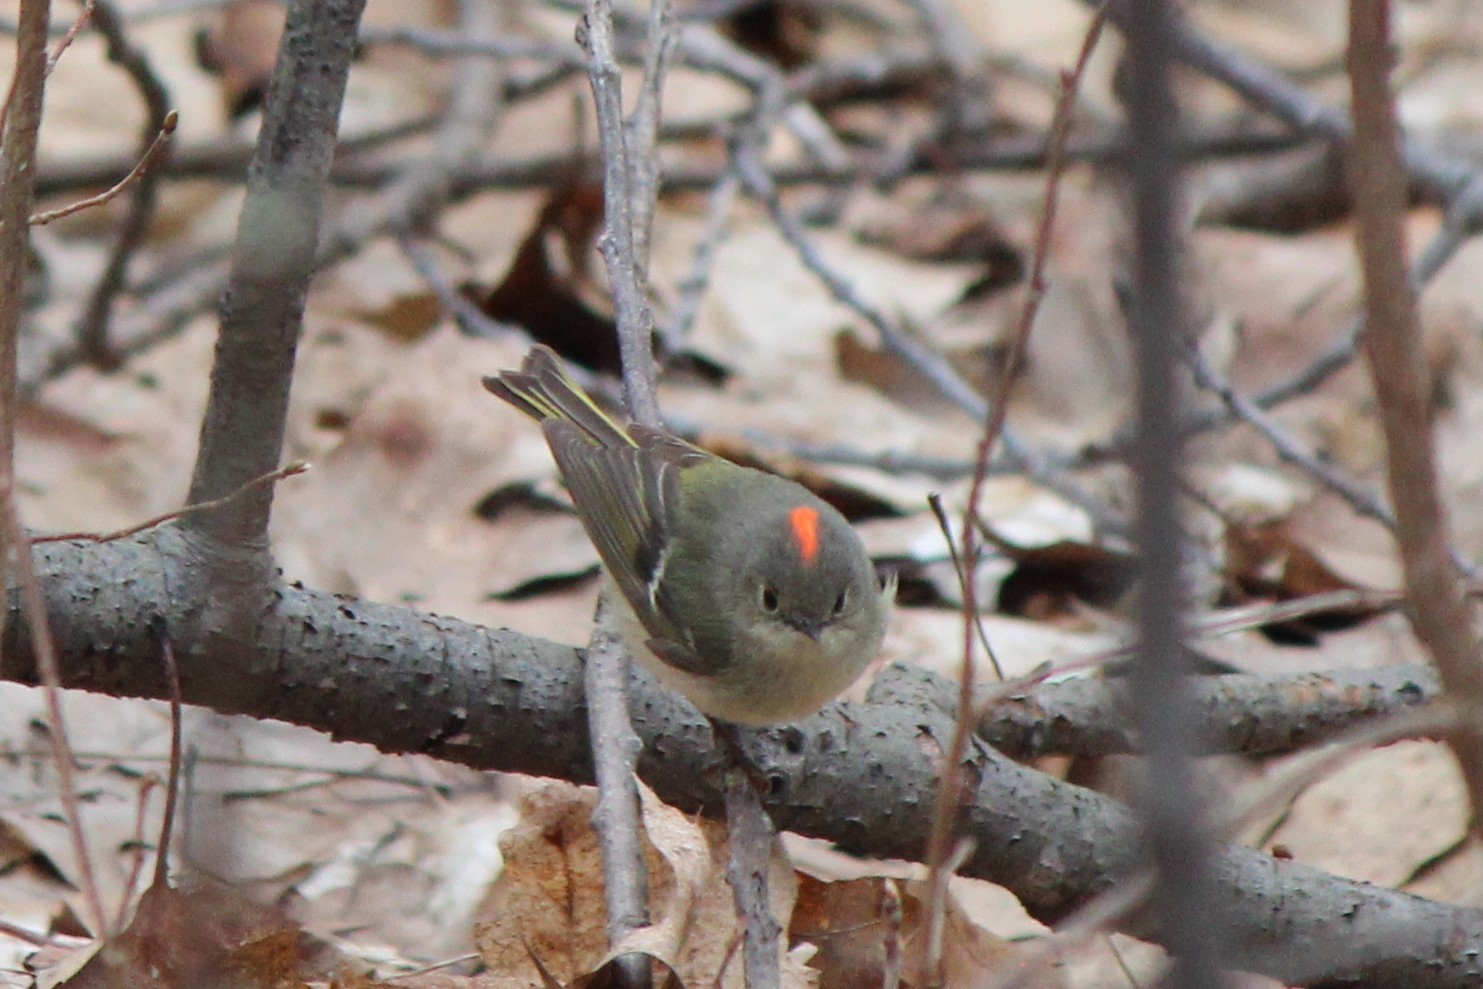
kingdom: Animalia
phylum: Chordata
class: Aves
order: Passeriformes
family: Regulidae
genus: Regulus
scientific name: Regulus calendula
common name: Ruby-crowned kinglet
